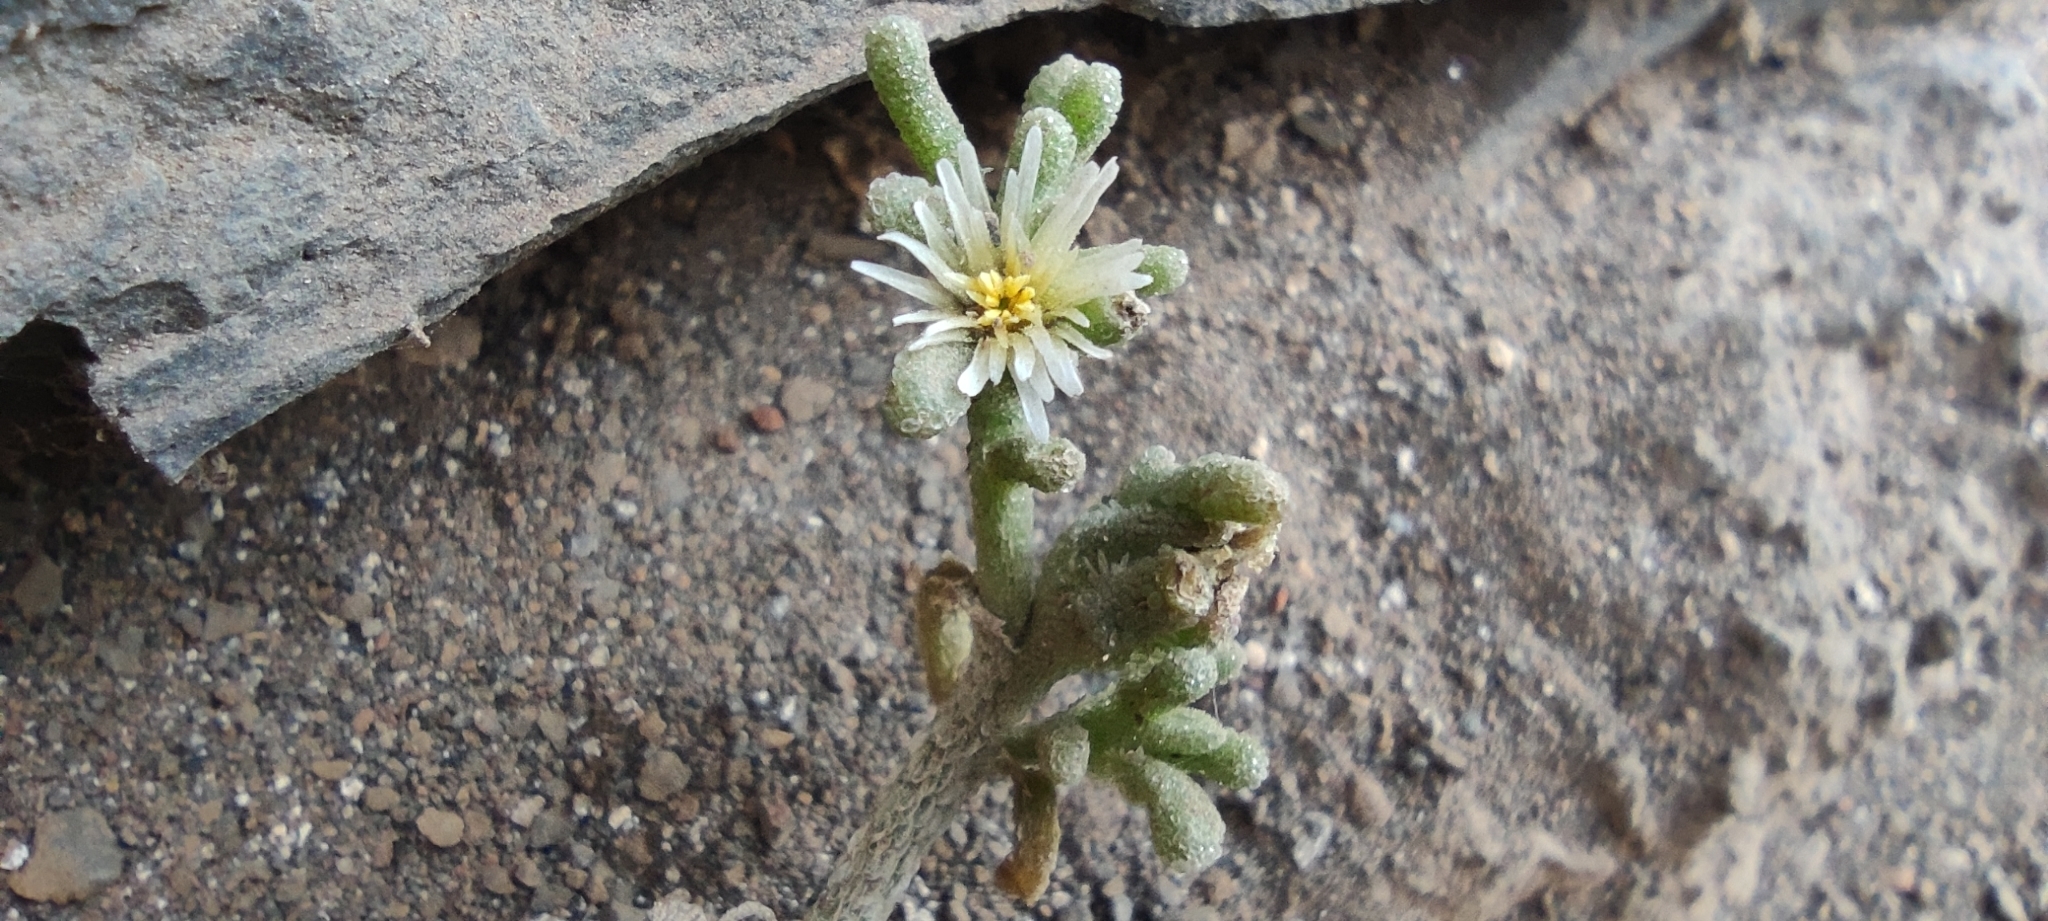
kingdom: Plantae
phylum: Tracheophyta
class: Magnoliopsida
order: Caryophyllales
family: Aizoaceae
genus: Mesembryanthemum
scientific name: Mesembryanthemum nodiflorum
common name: Slenderleaf iceplant
